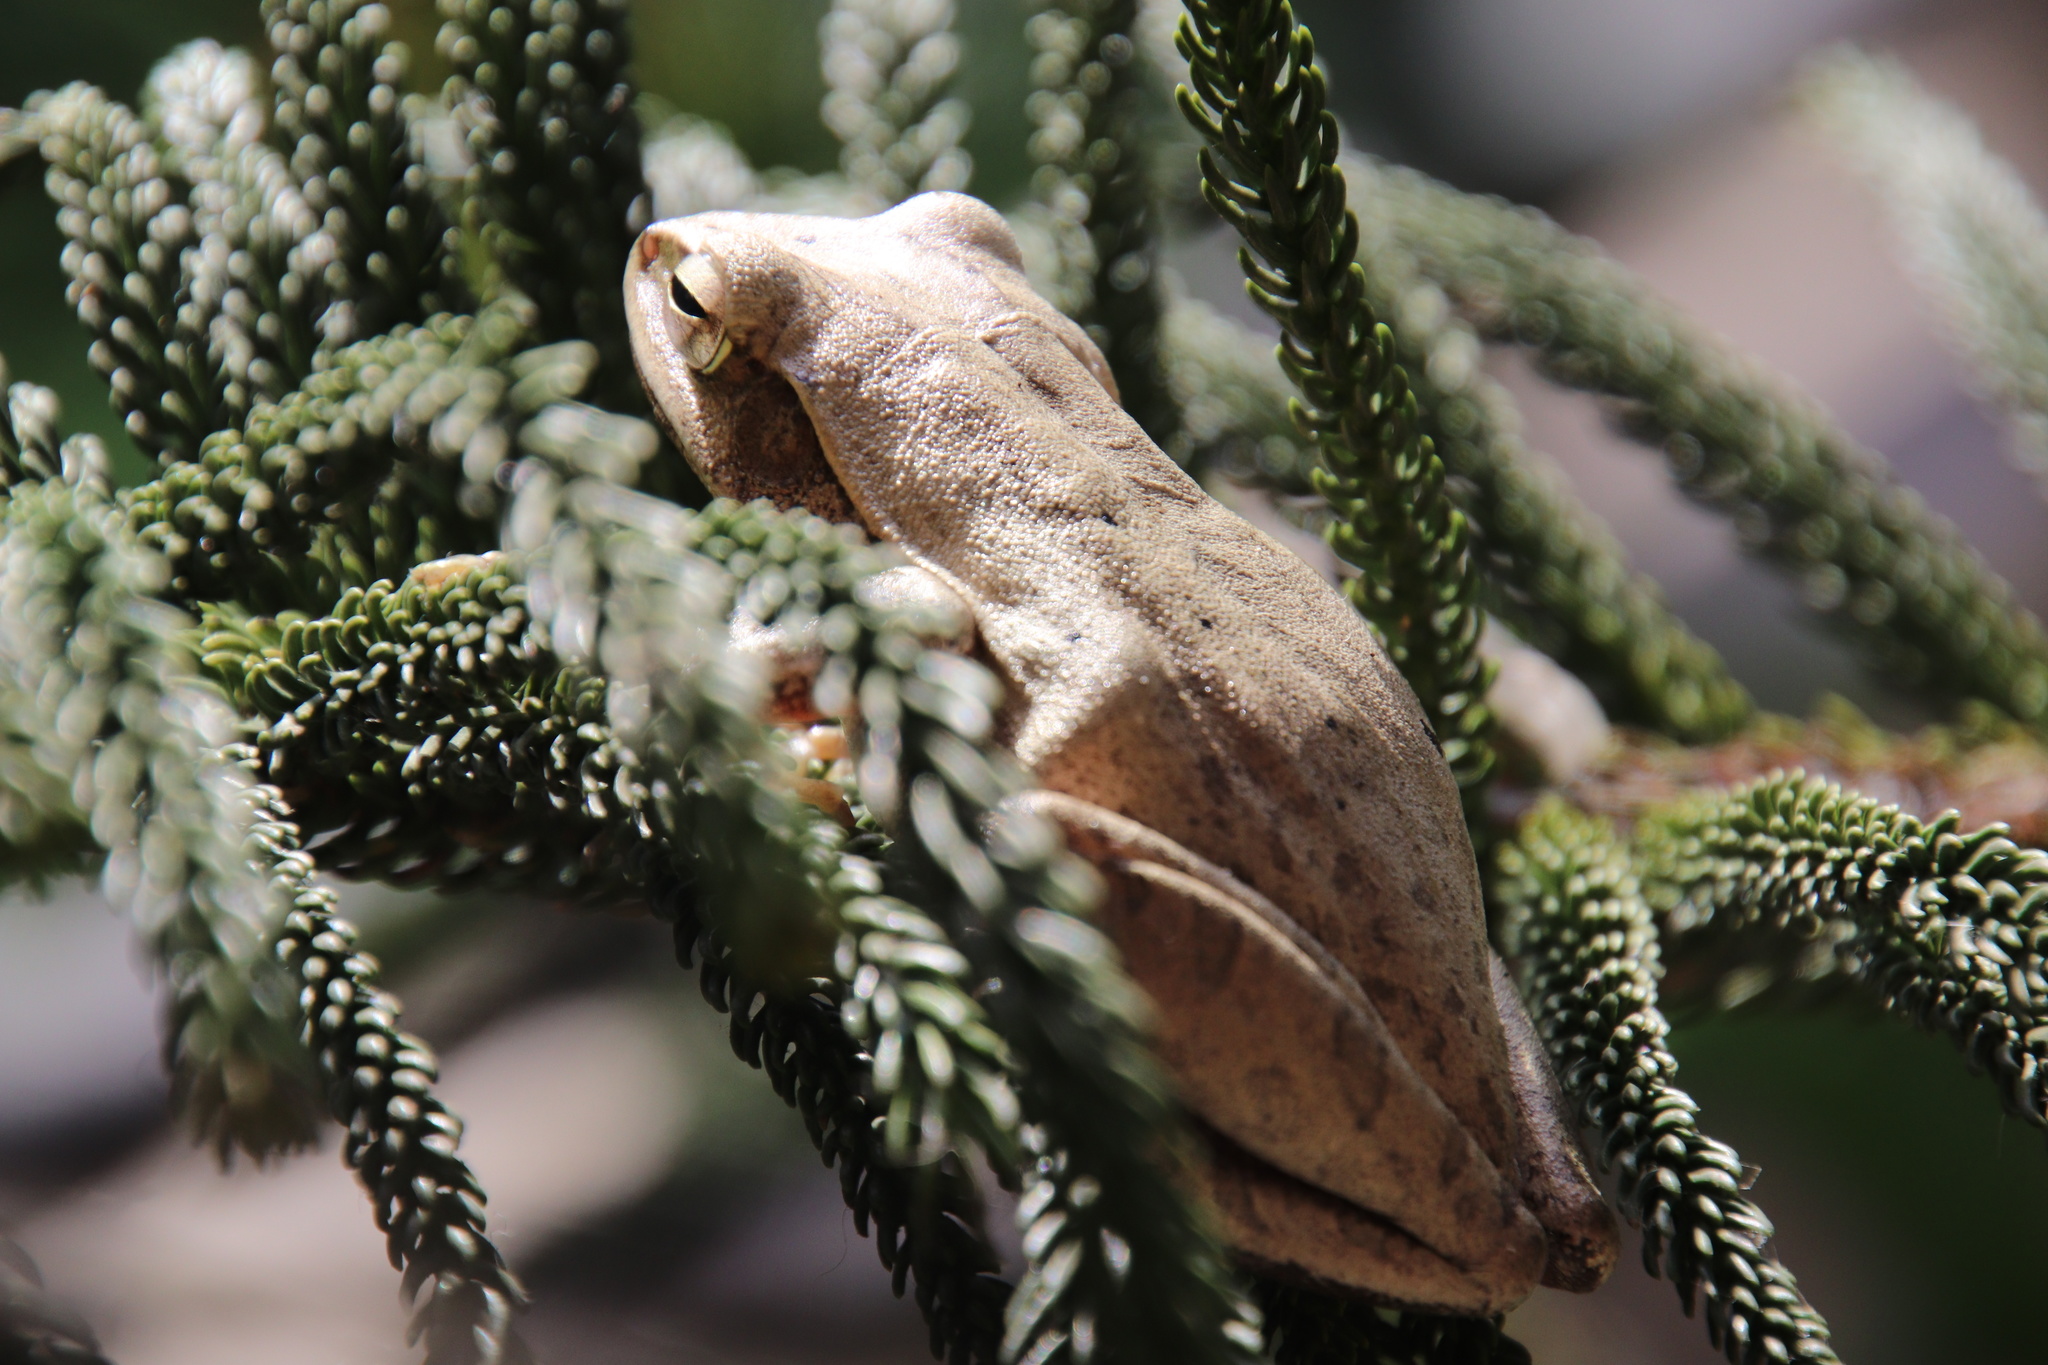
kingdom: Animalia
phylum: Chordata
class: Amphibia
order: Anura
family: Rhacophoridae
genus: Polypedates
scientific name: Polypedates leucomystax
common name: Common tree frog/four-lined tree frog
